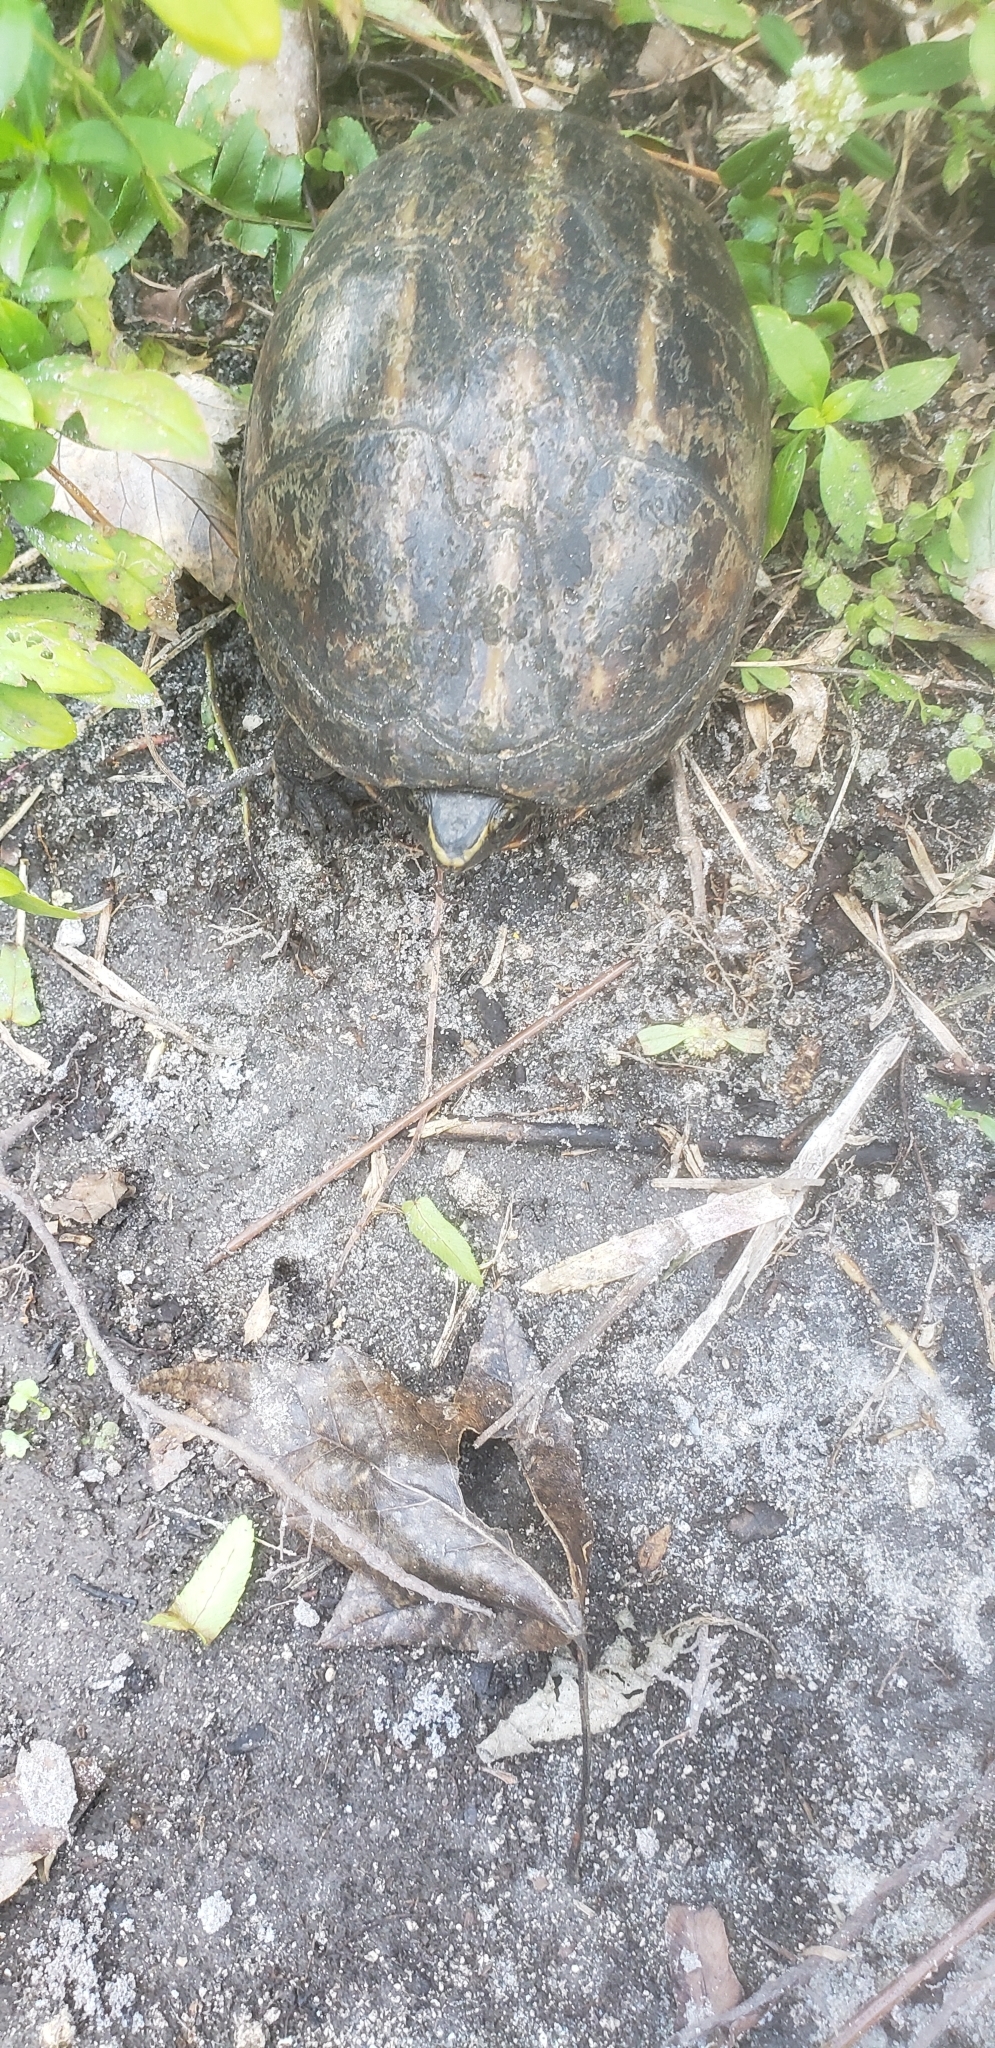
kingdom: Animalia
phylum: Chordata
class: Testudines
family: Kinosternidae
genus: Kinosternon
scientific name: Kinosternon baurii
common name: Striped mud turtle
